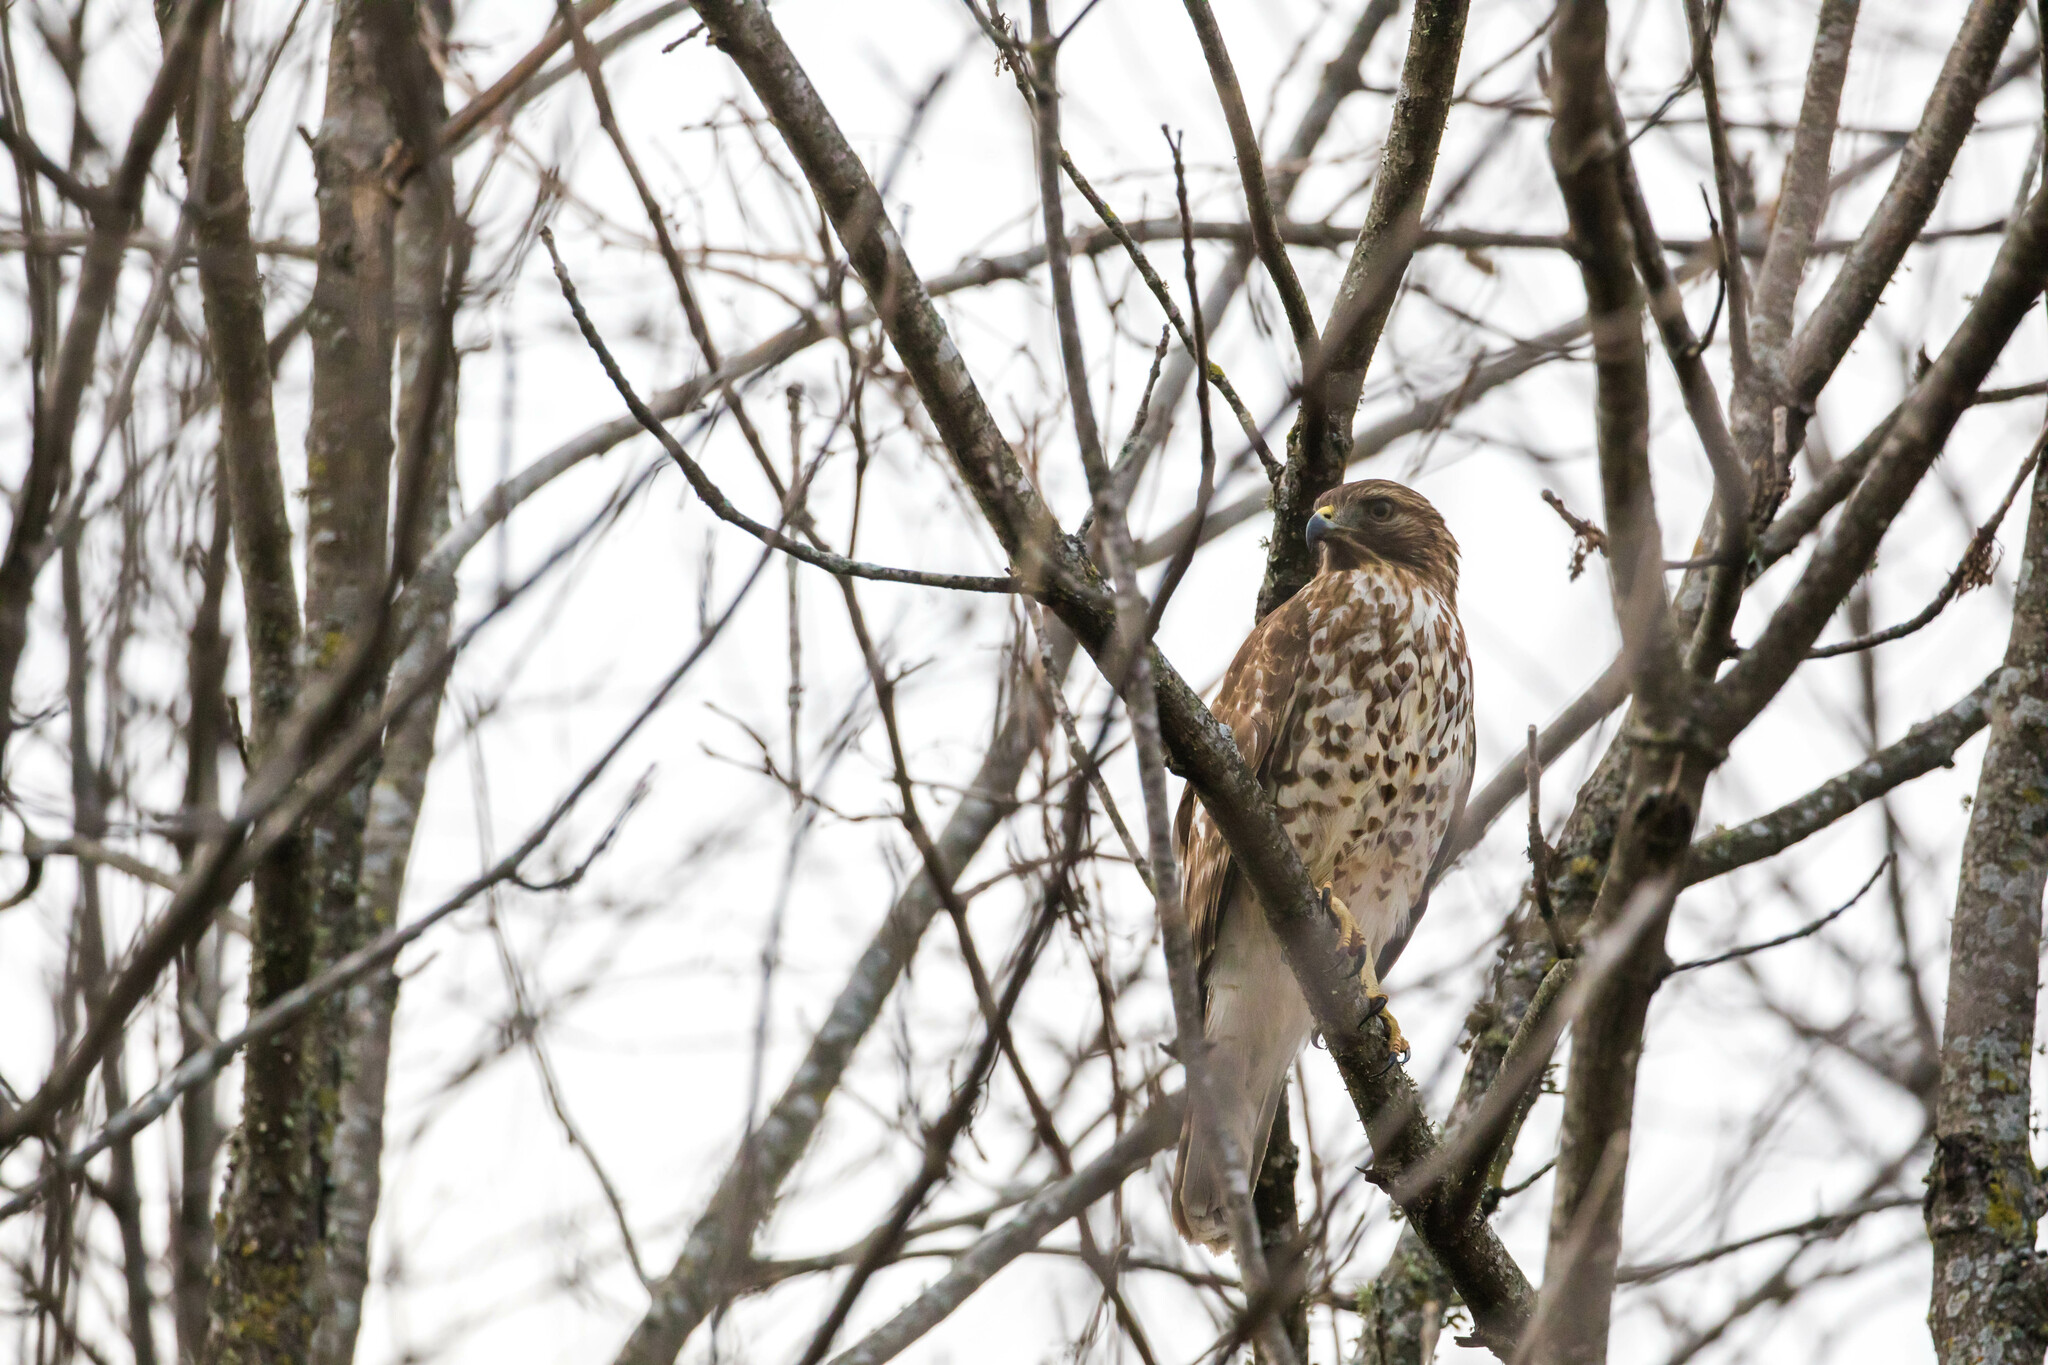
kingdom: Animalia
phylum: Chordata
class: Aves
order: Accipitriformes
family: Accipitridae
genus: Buteo
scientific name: Buteo lineatus
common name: Red-shouldered hawk
